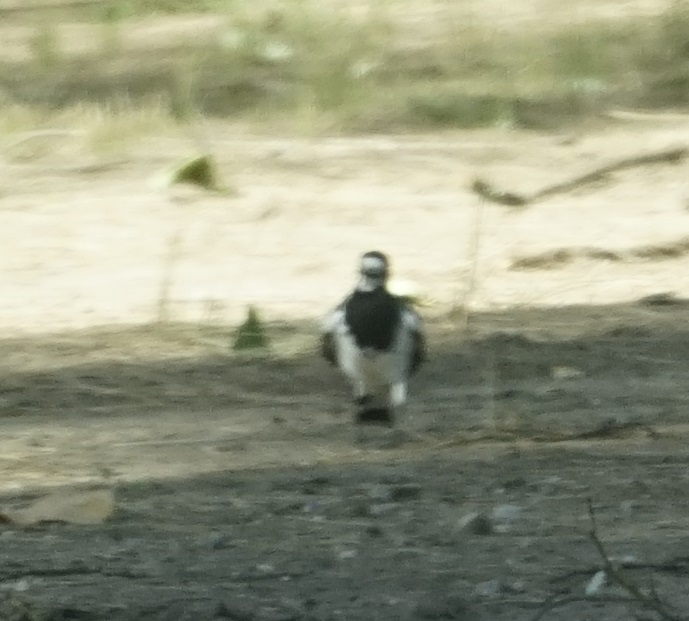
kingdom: Animalia
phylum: Chordata
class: Aves
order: Passeriformes
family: Monarchidae
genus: Grallina
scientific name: Grallina cyanoleuca
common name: Magpie-lark
